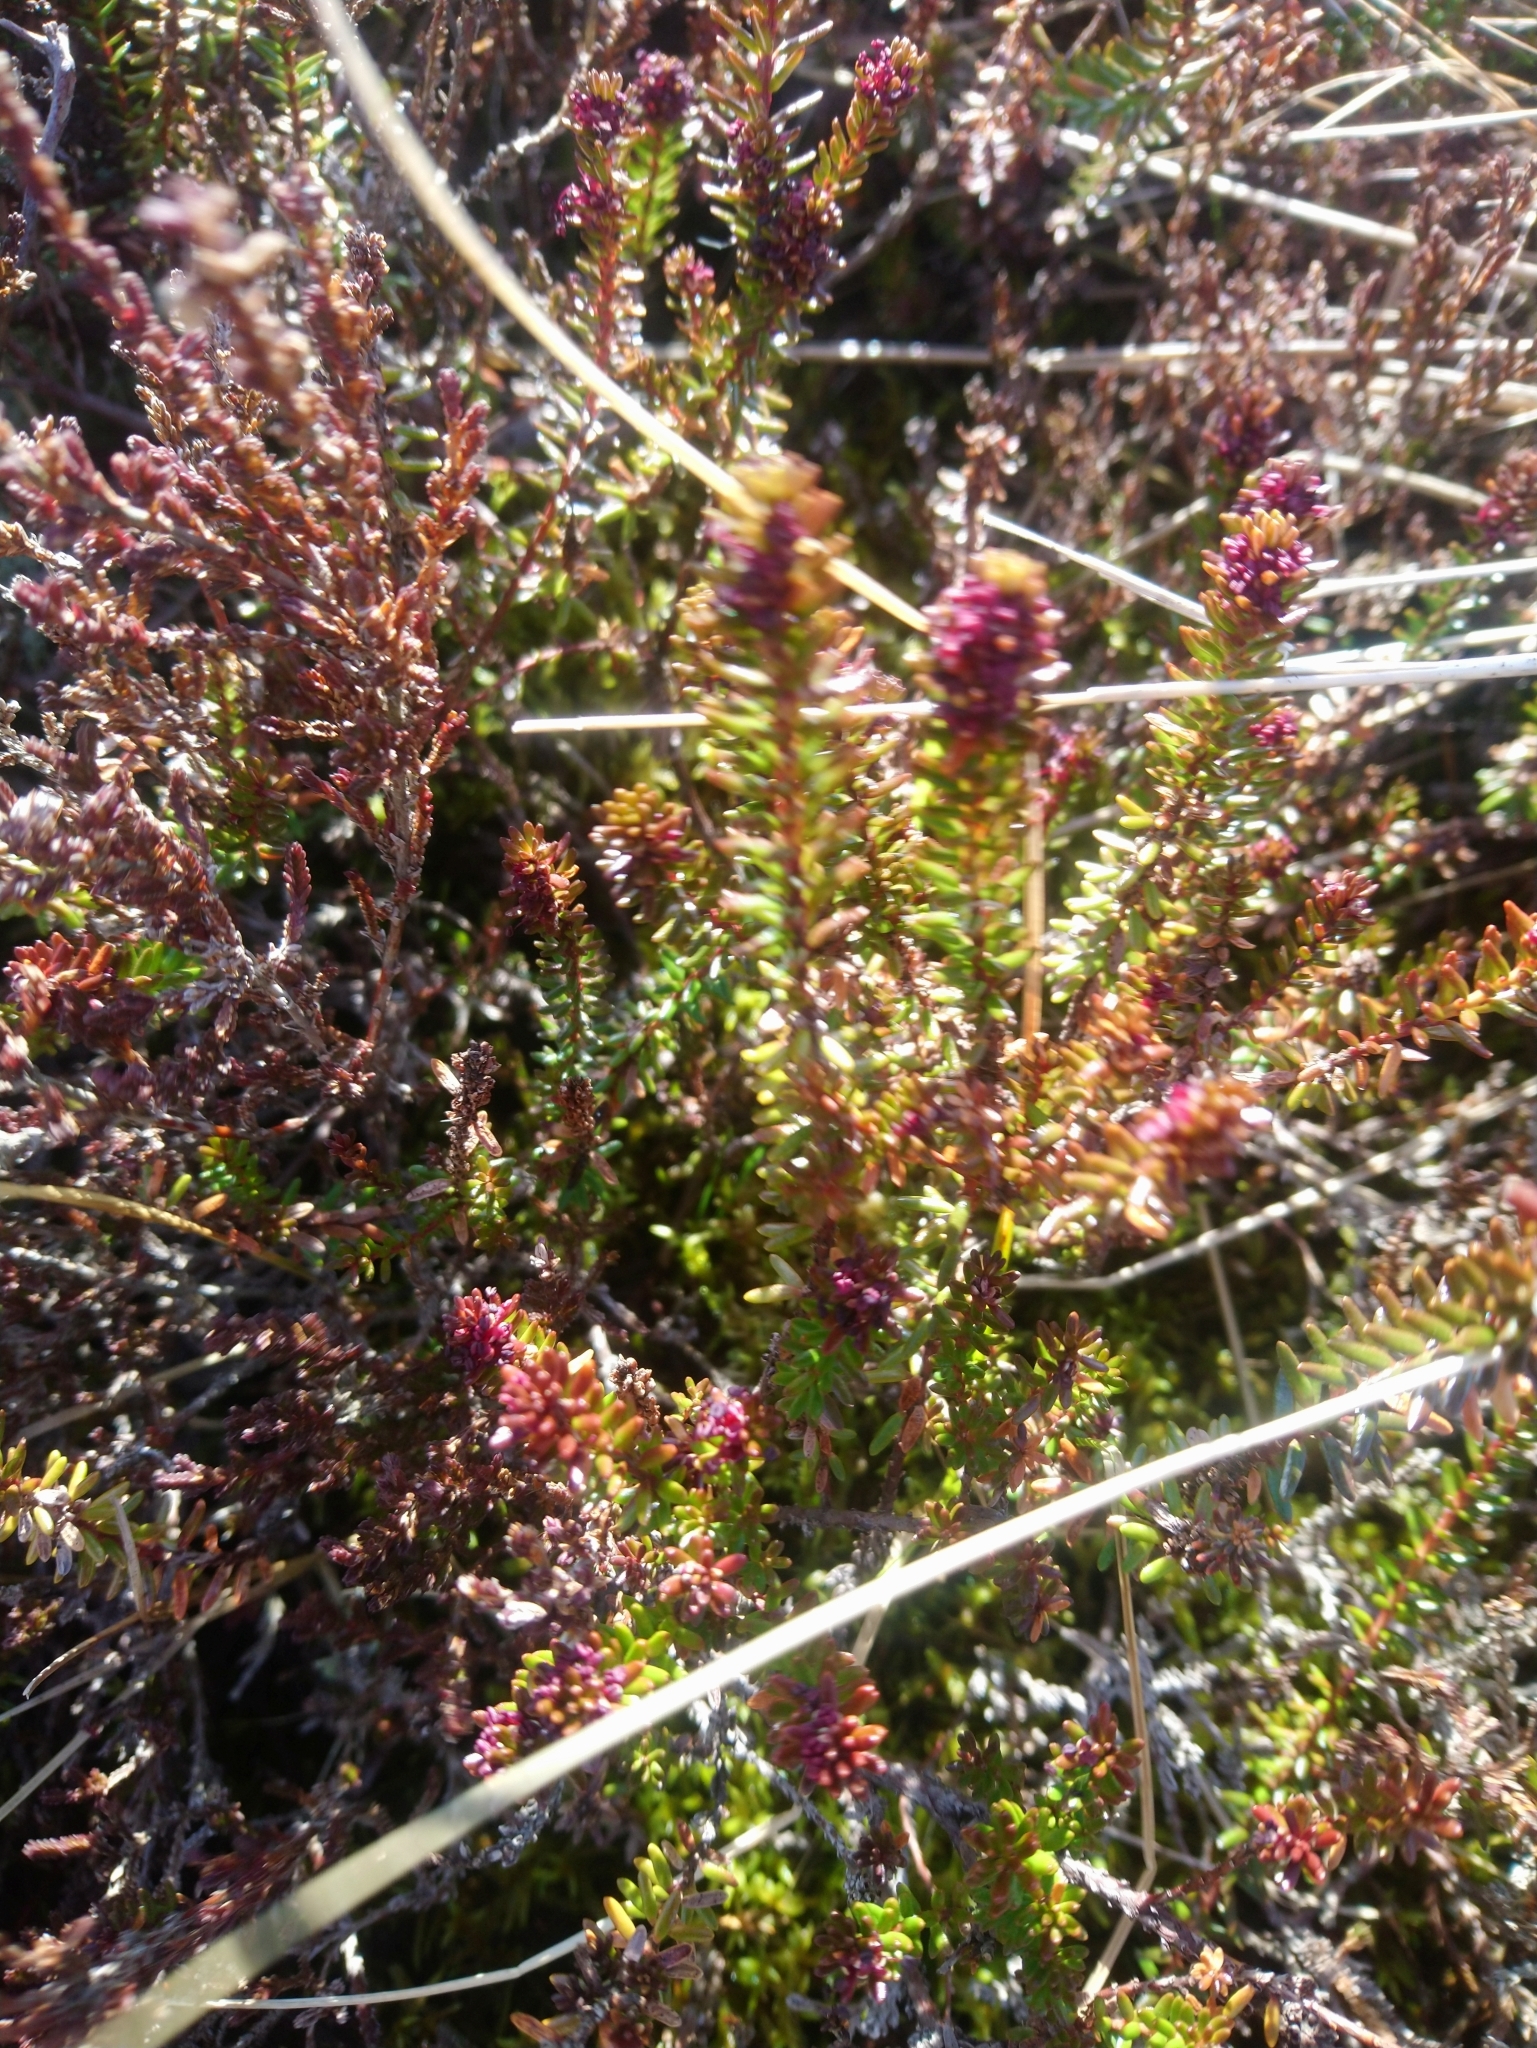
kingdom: Plantae
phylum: Tracheophyta
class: Magnoliopsida
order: Ericales
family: Ericaceae
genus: Empetrum
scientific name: Empetrum nigrum
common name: Black crowberry
